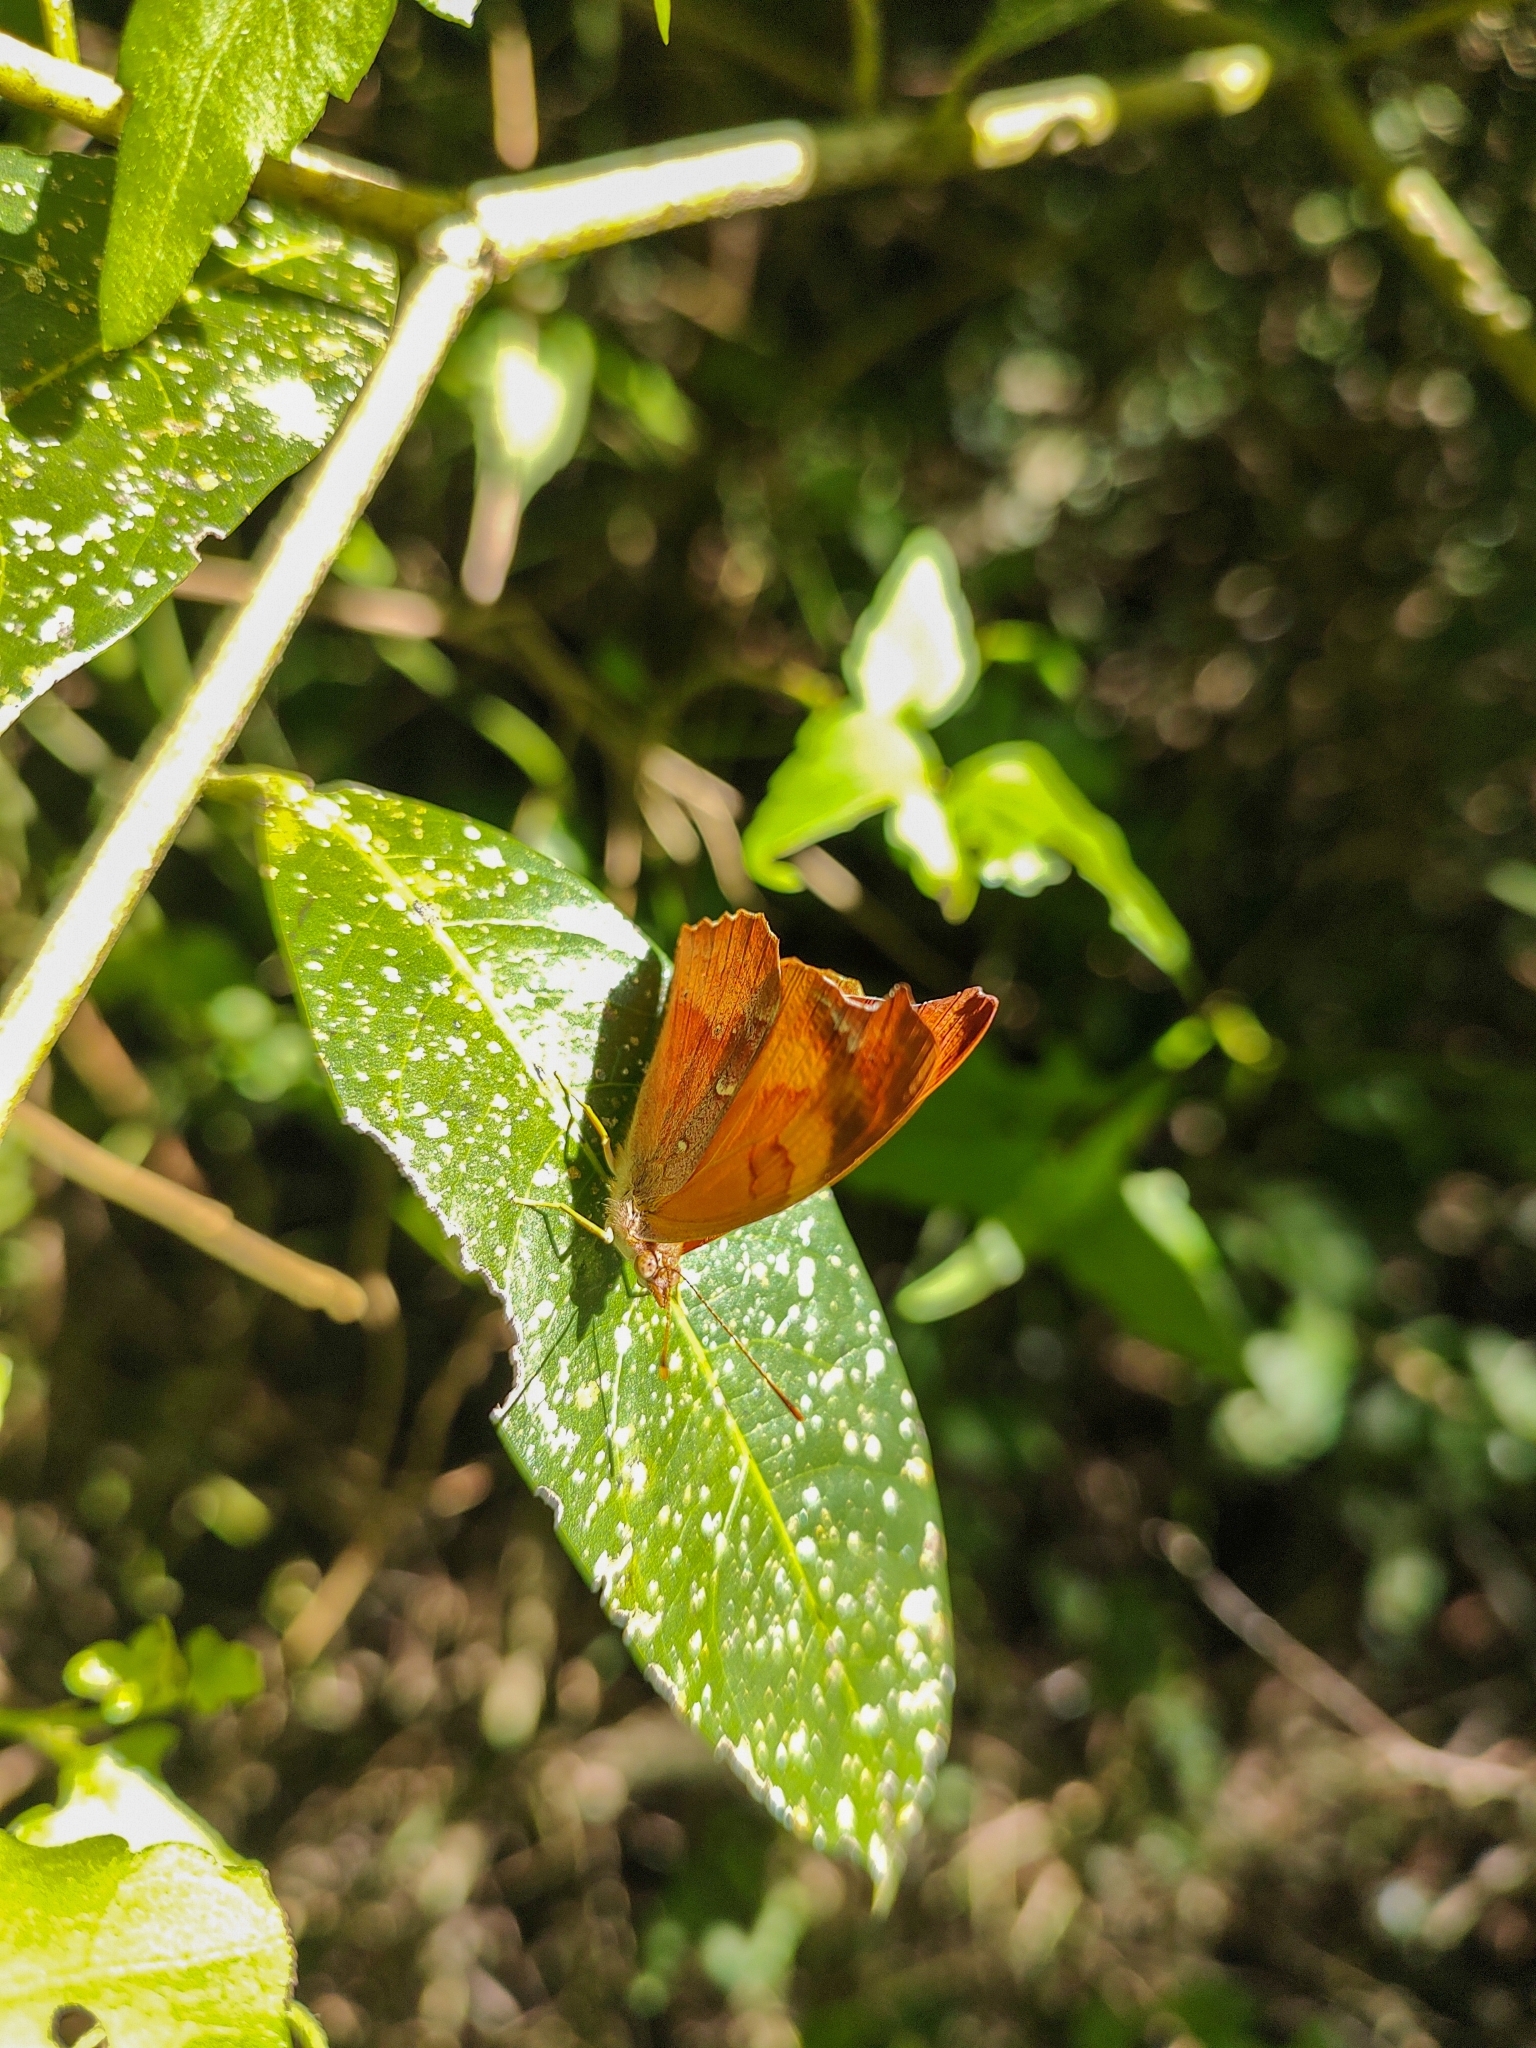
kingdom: Animalia
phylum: Arthropoda
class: Insecta
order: Lepidoptera
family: Nymphalidae
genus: Temenis
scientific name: Temenis laothoe
